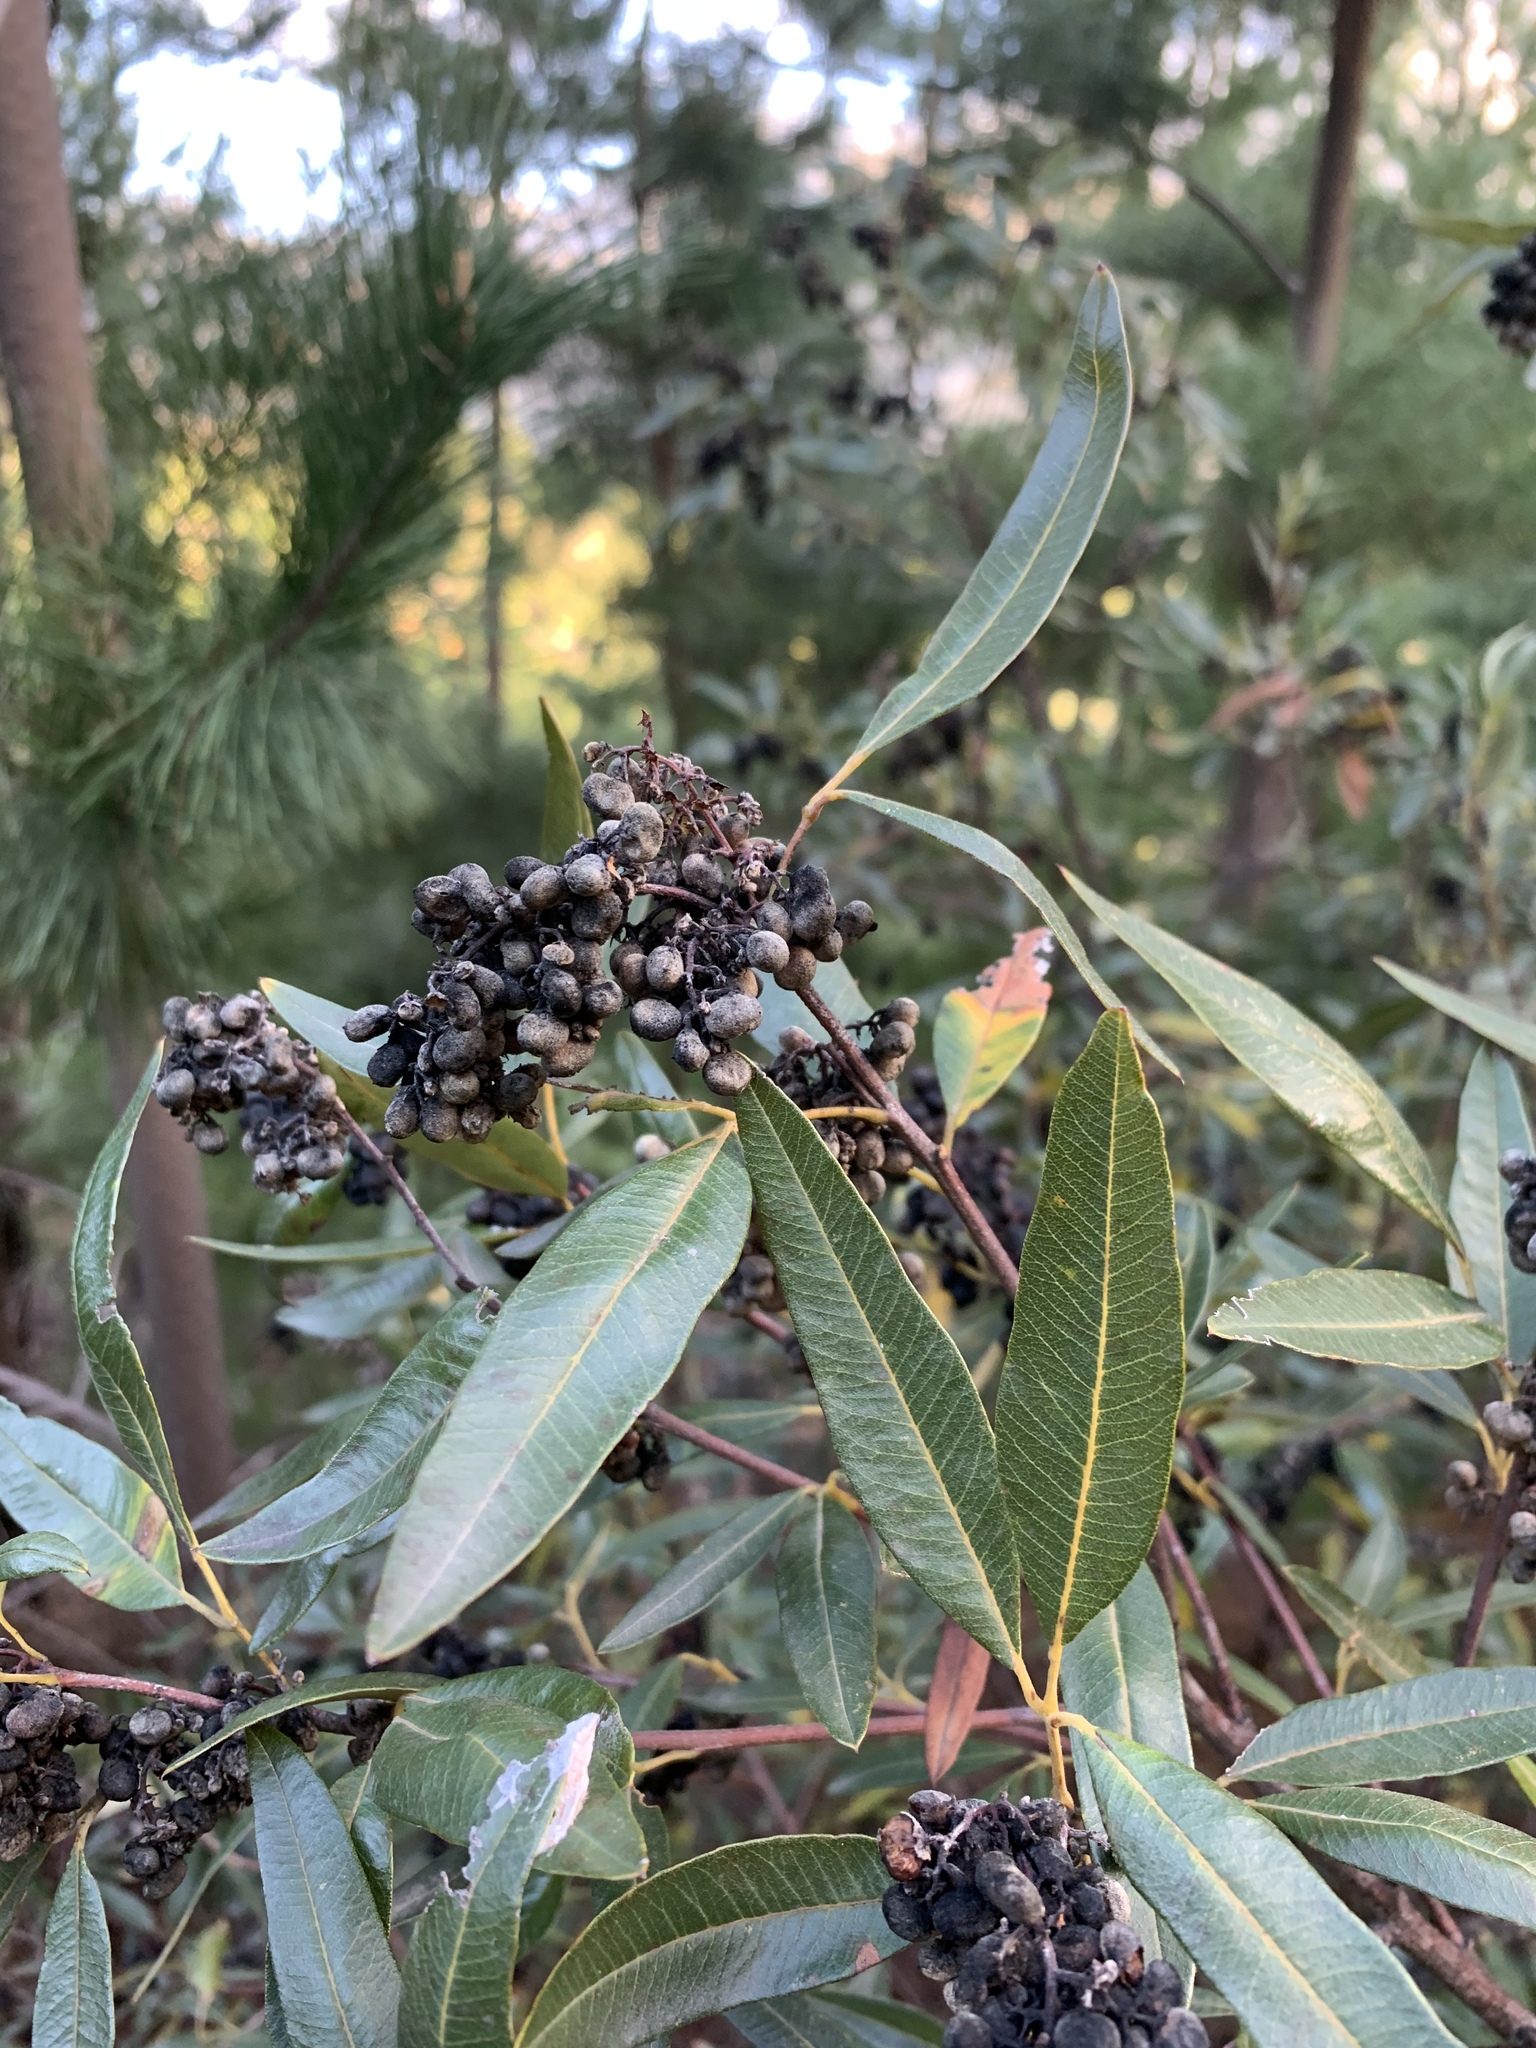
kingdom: Plantae
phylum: Tracheophyta
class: Magnoliopsida
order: Sapindales
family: Anacardiaceae
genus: Searsia
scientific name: Searsia angustifolia
